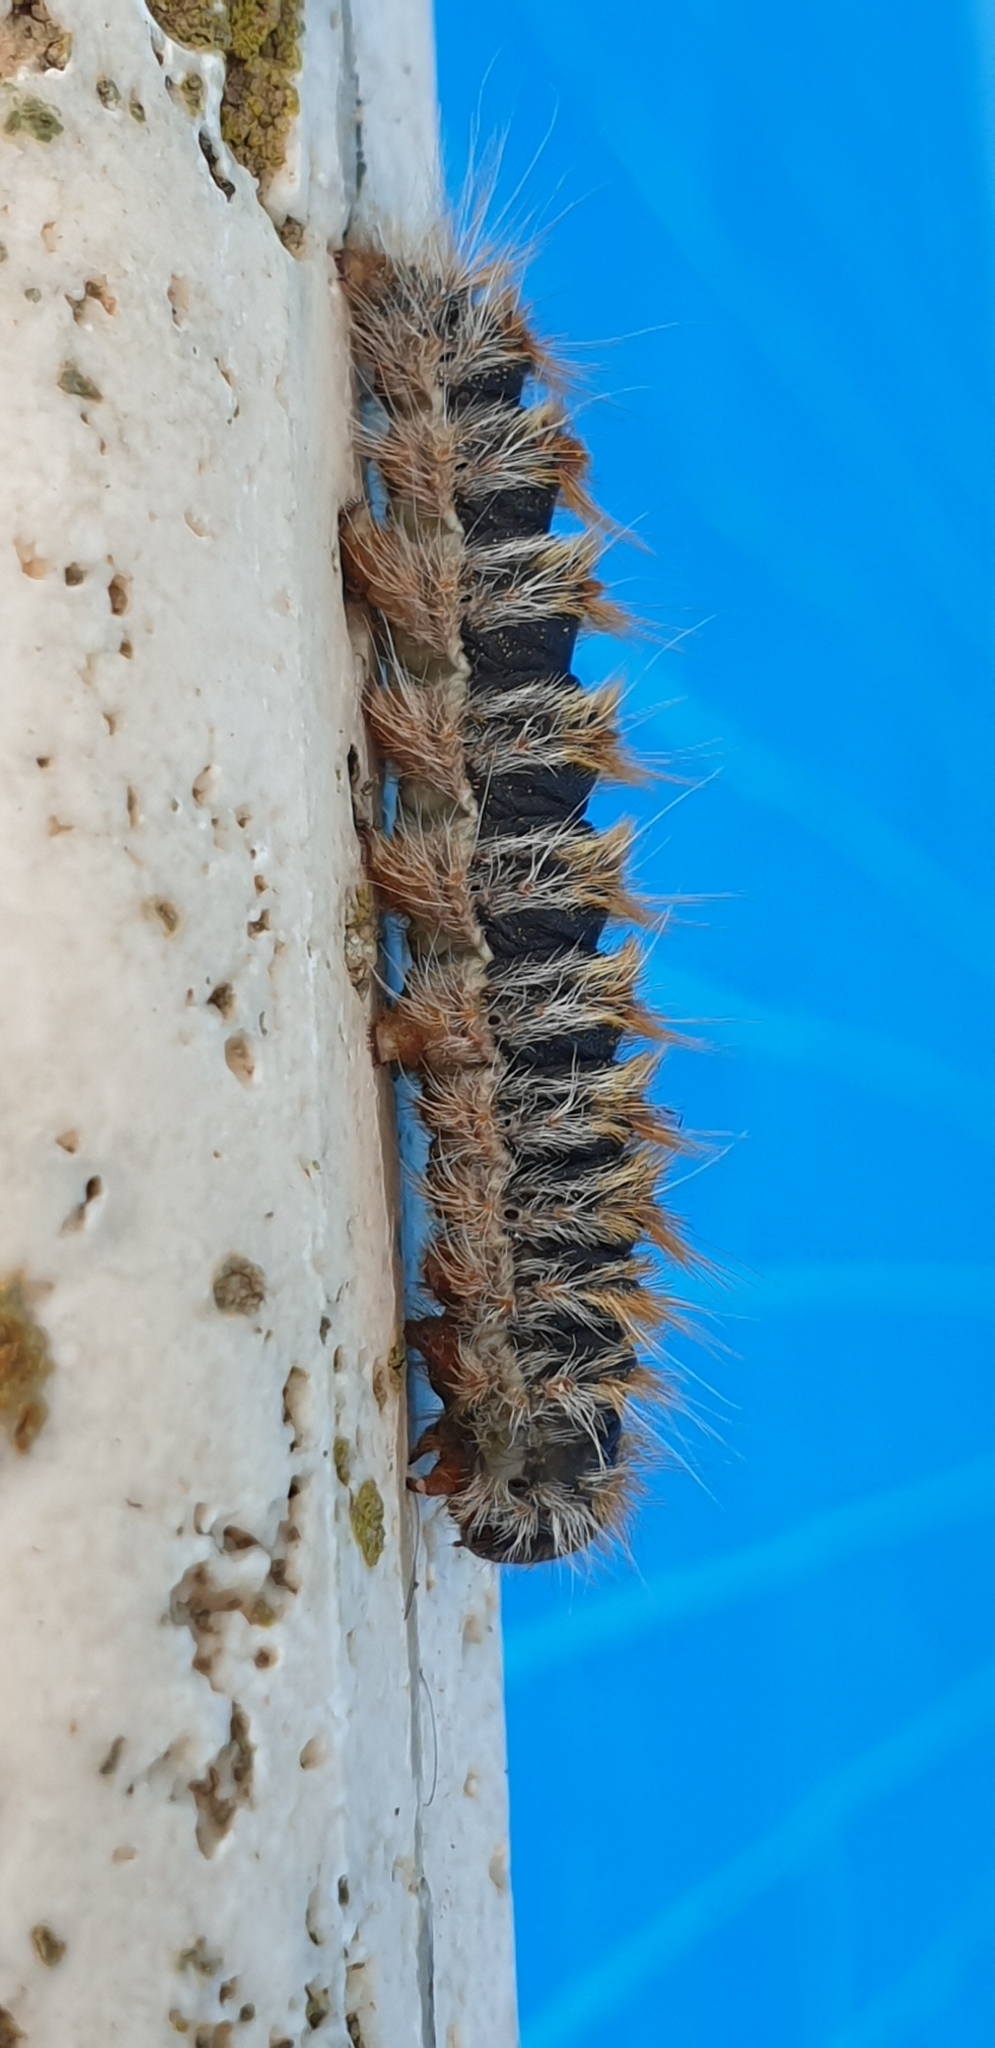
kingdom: Animalia
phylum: Arthropoda
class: Insecta
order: Lepidoptera
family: Notodontidae
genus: Thaumetopoea
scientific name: Thaumetopoea pityocampa
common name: Pine processionary
